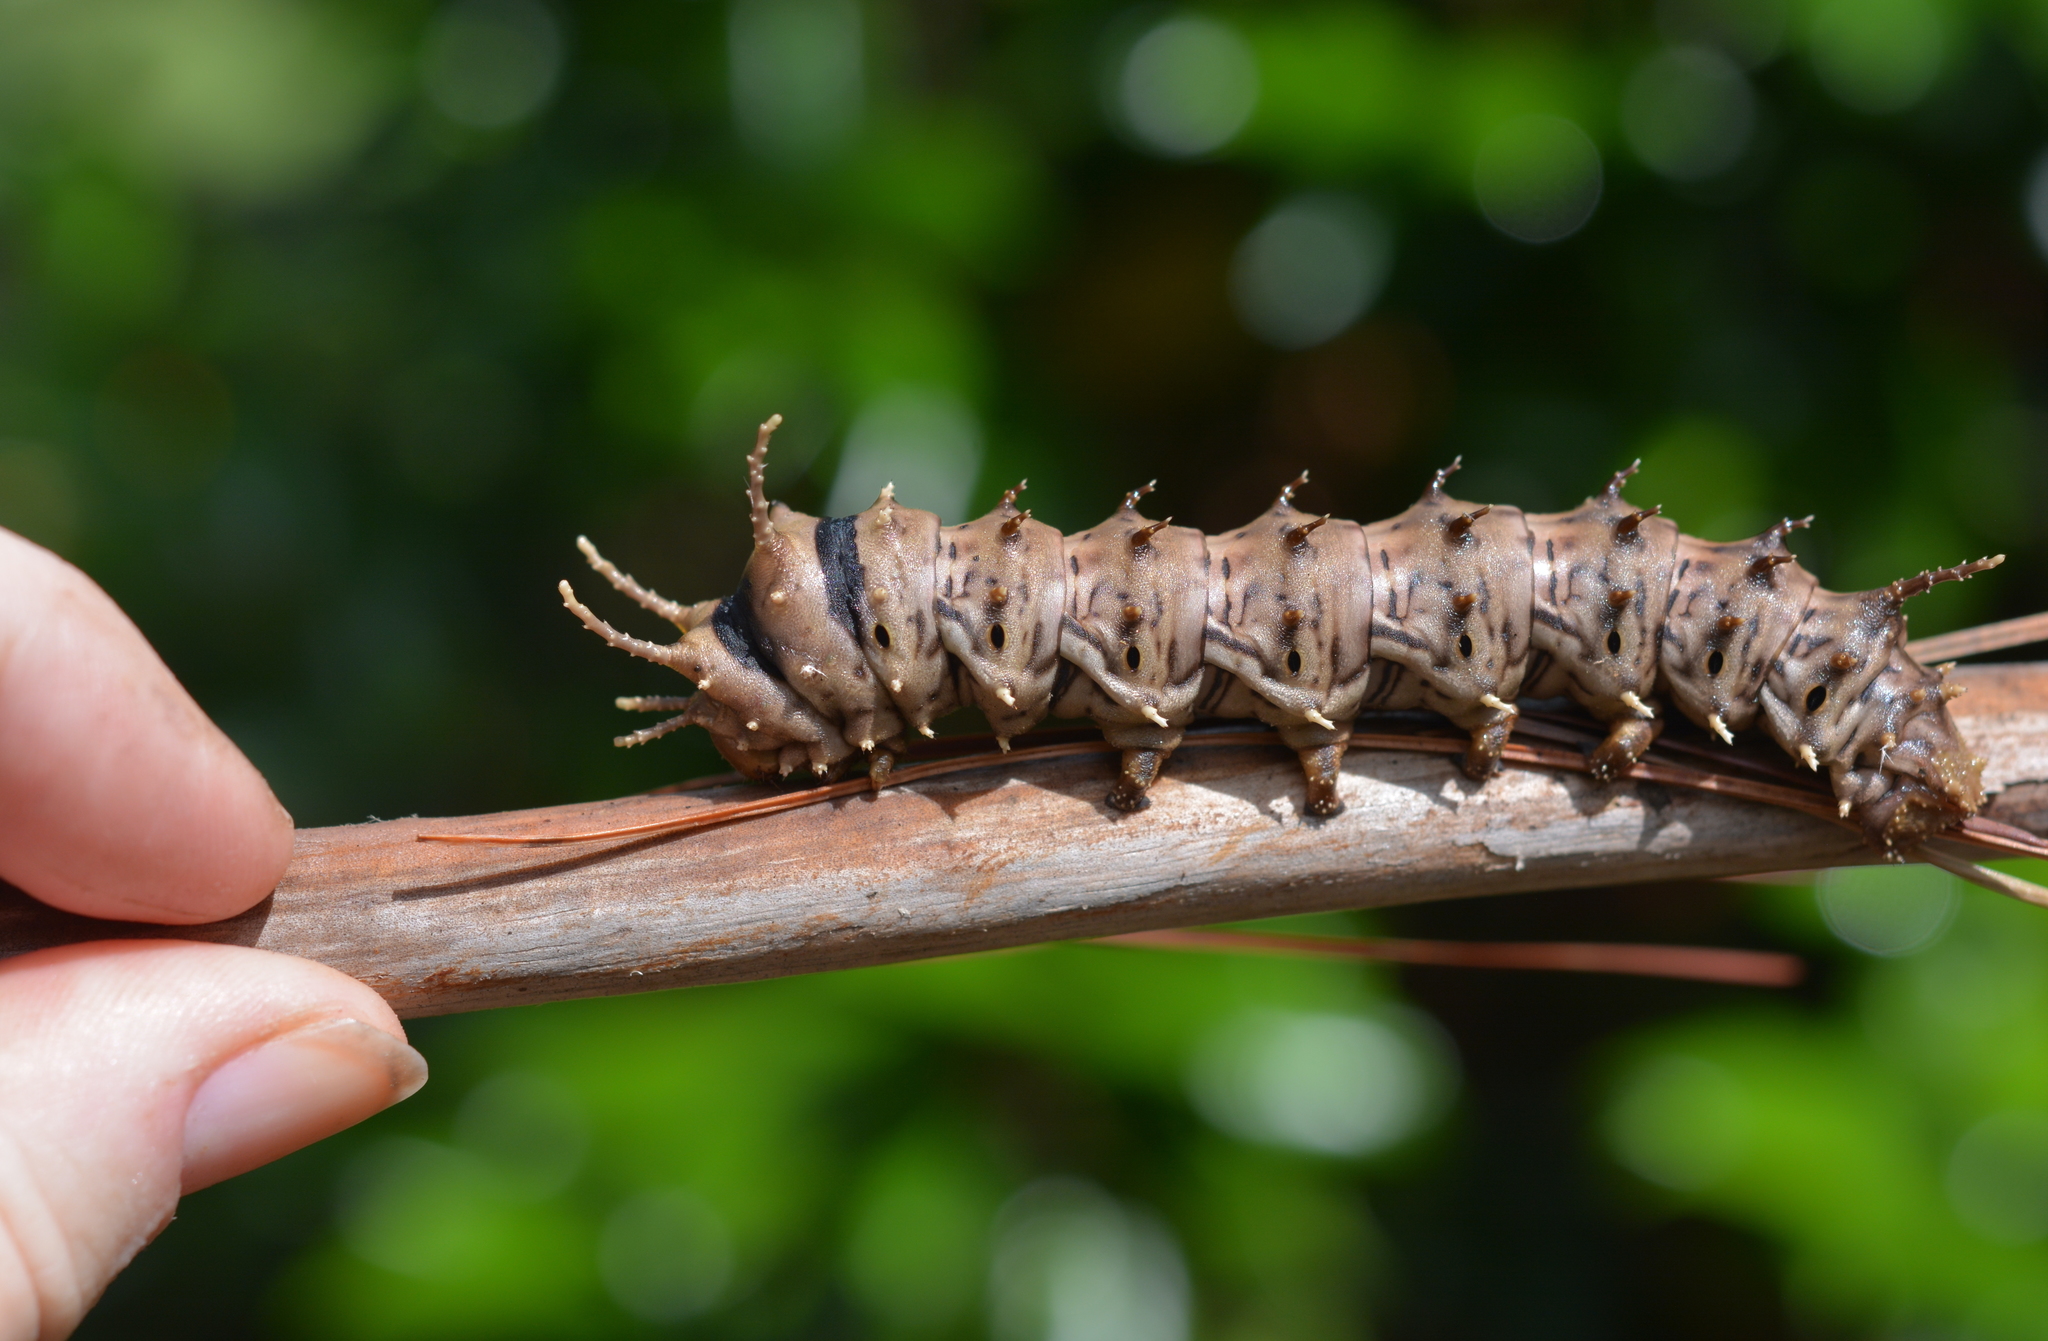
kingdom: Animalia
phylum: Arthropoda
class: Insecta
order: Lepidoptera
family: Saturniidae
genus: Citheronia
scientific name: Citheronia sepulcralis
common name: Pine-devil moth
